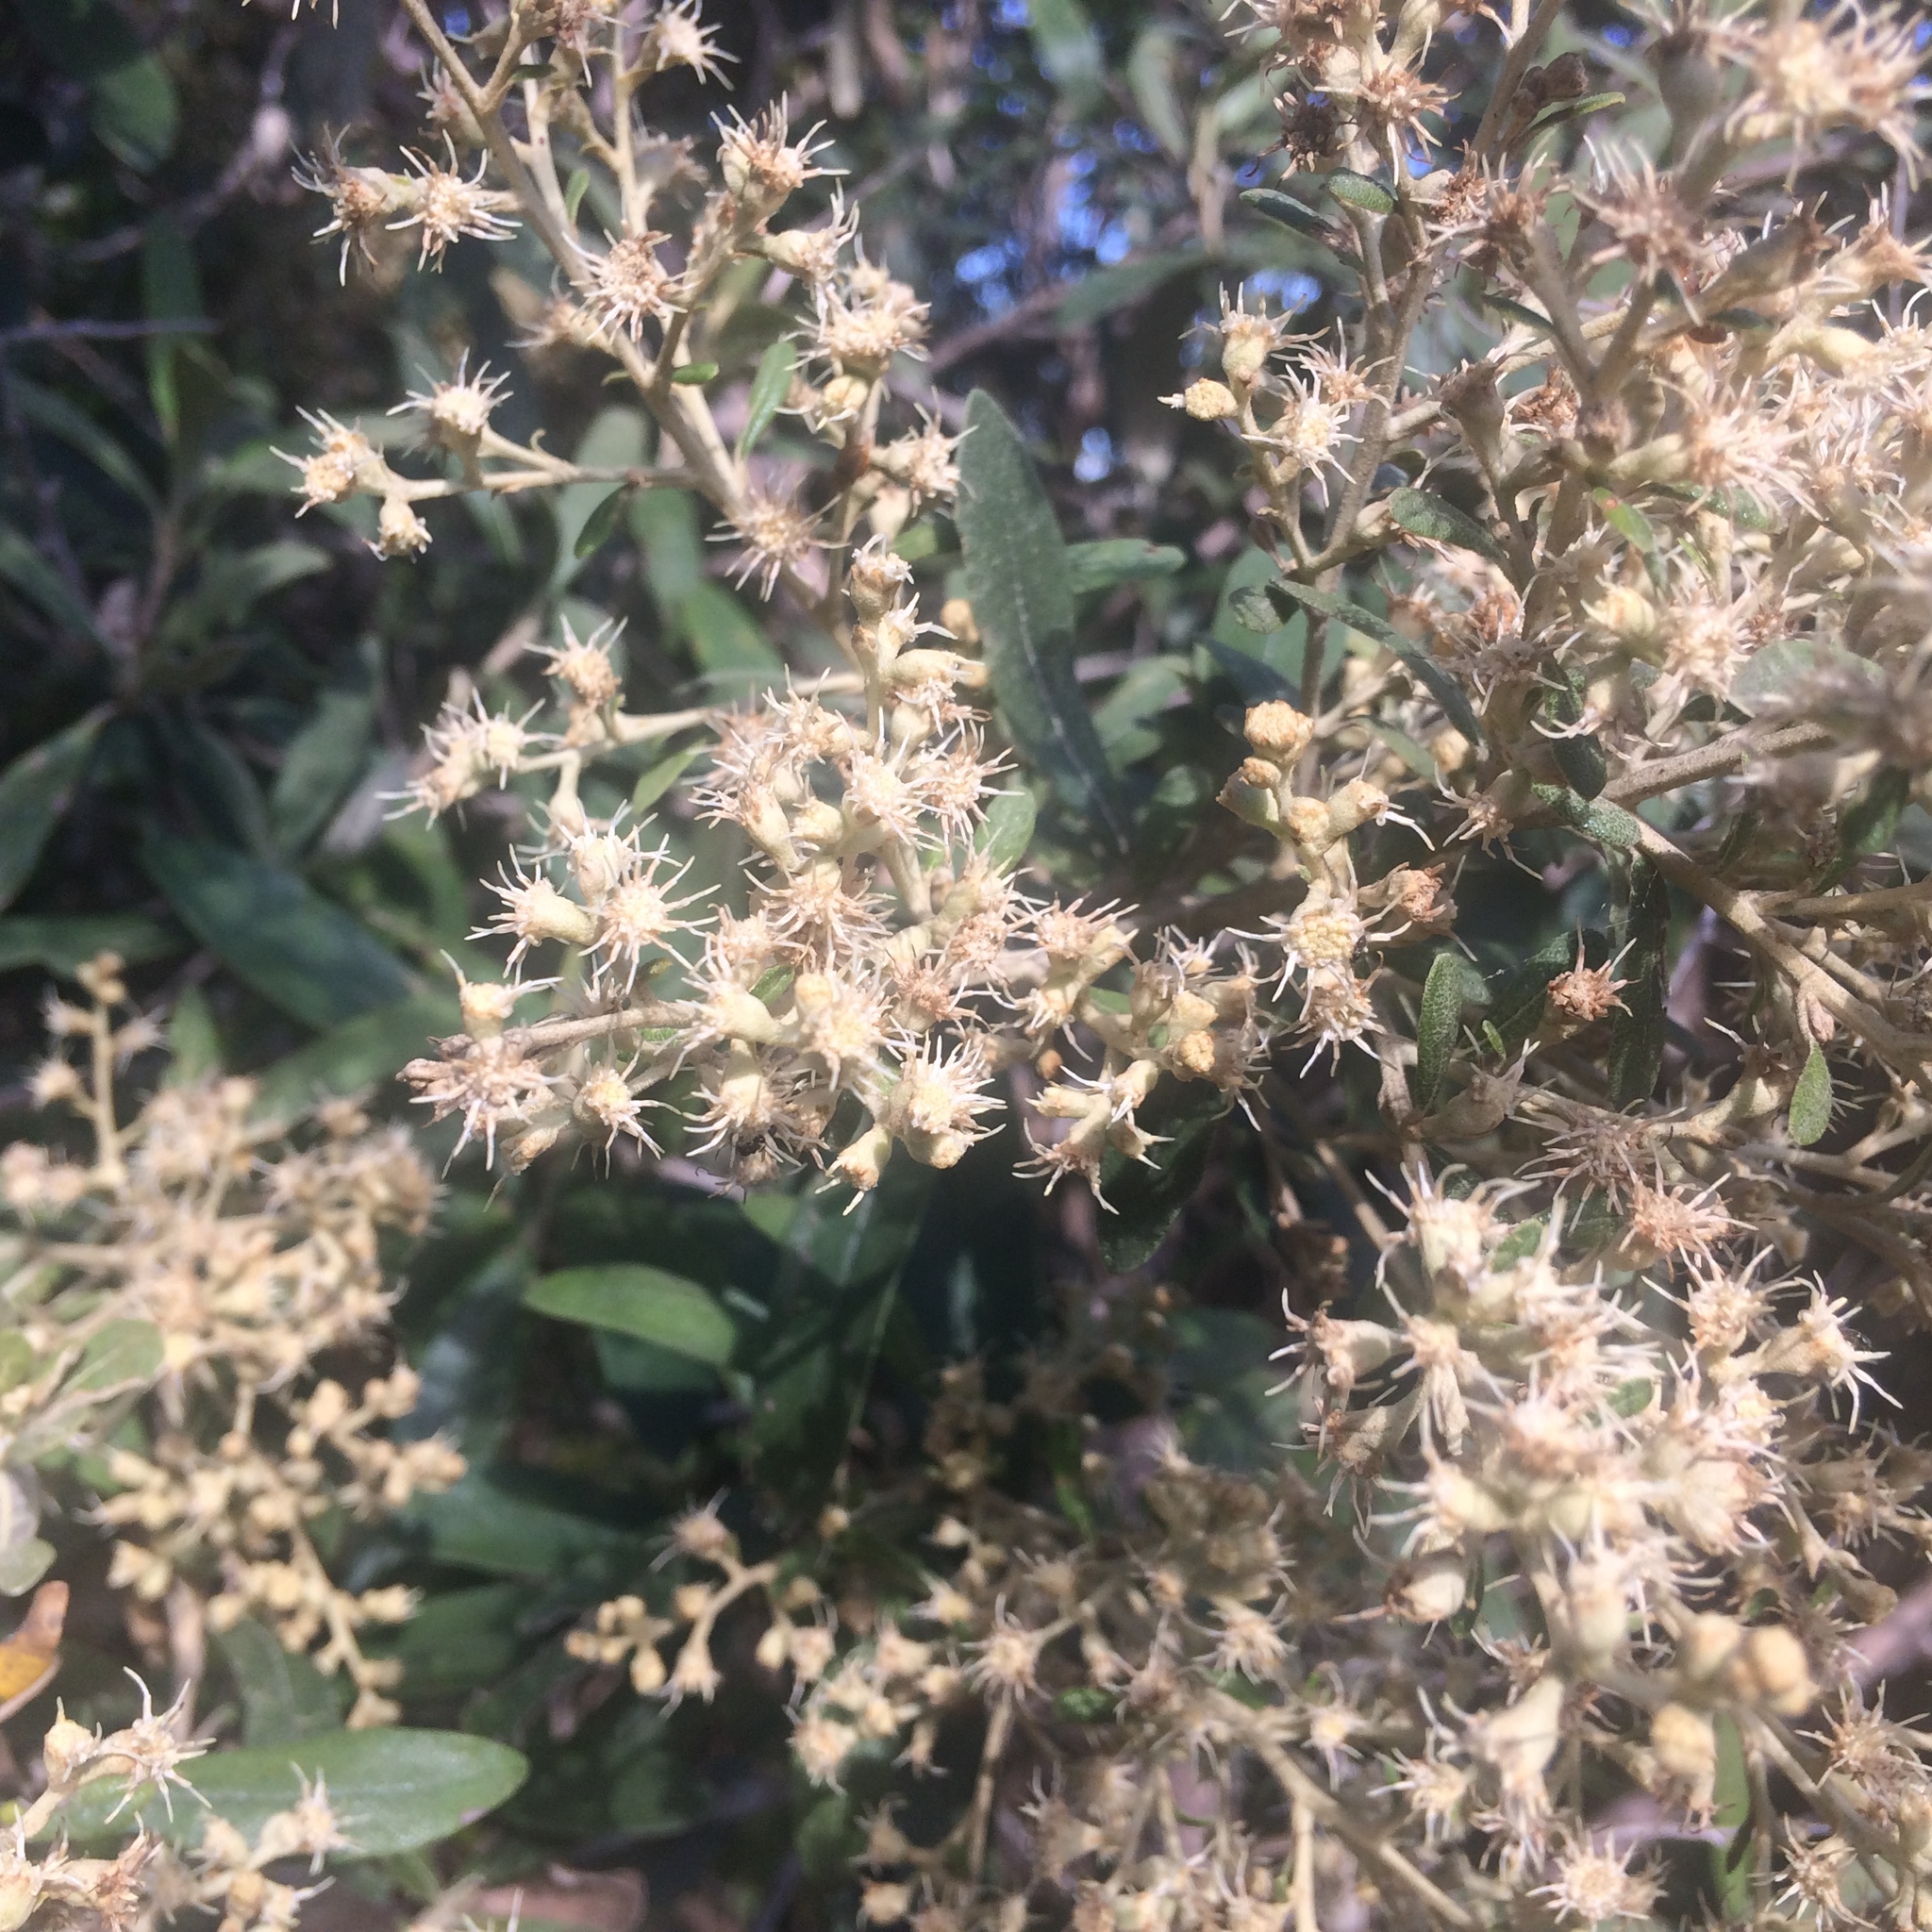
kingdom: Plantae
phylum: Tracheophyta
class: Magnoliopsida
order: Asterales
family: Asteraceae
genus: Tarchonanthus
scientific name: Tarchonanthus littoralis
